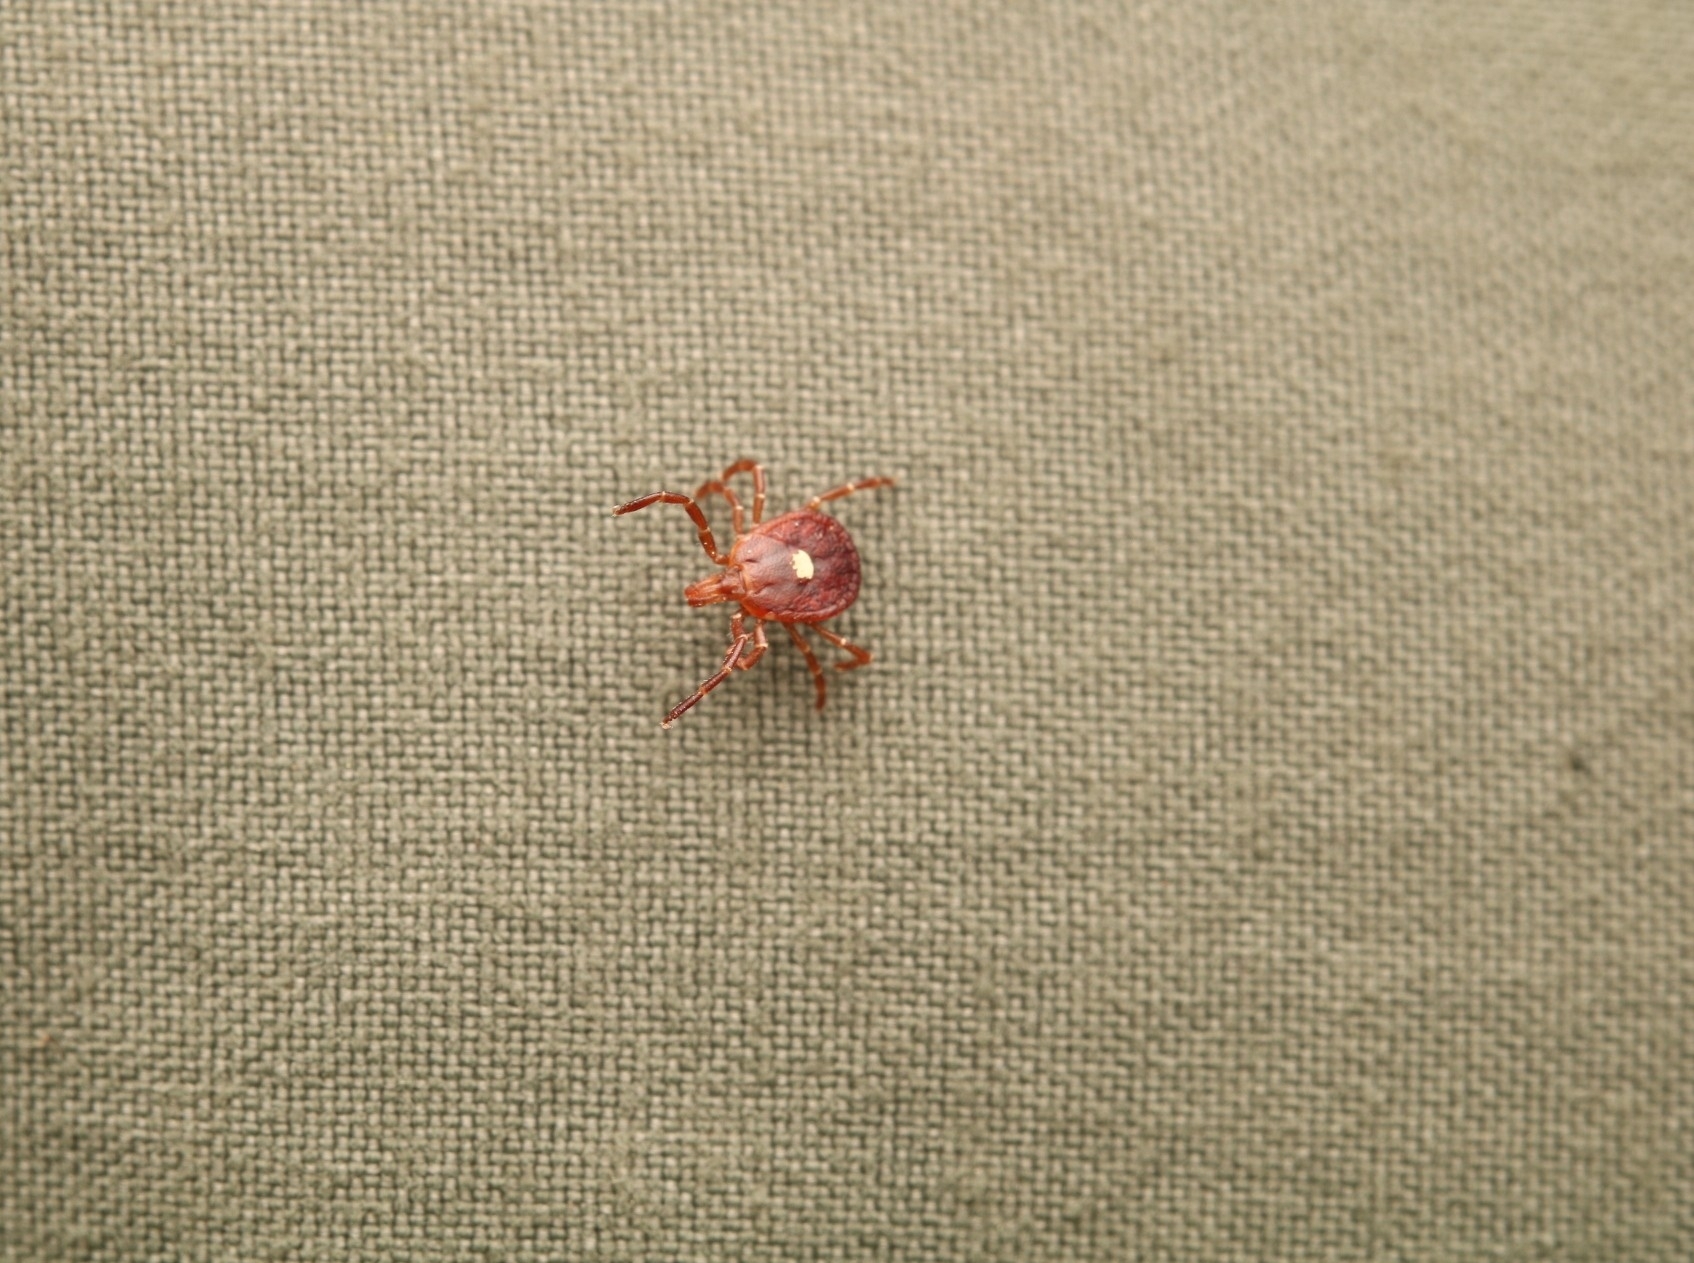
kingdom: Animalia
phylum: Arthropoda
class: Arachnida
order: Ixodida
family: Ixodidae
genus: Amblyomma
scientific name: Amblyomma americanum
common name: Lone star tick
